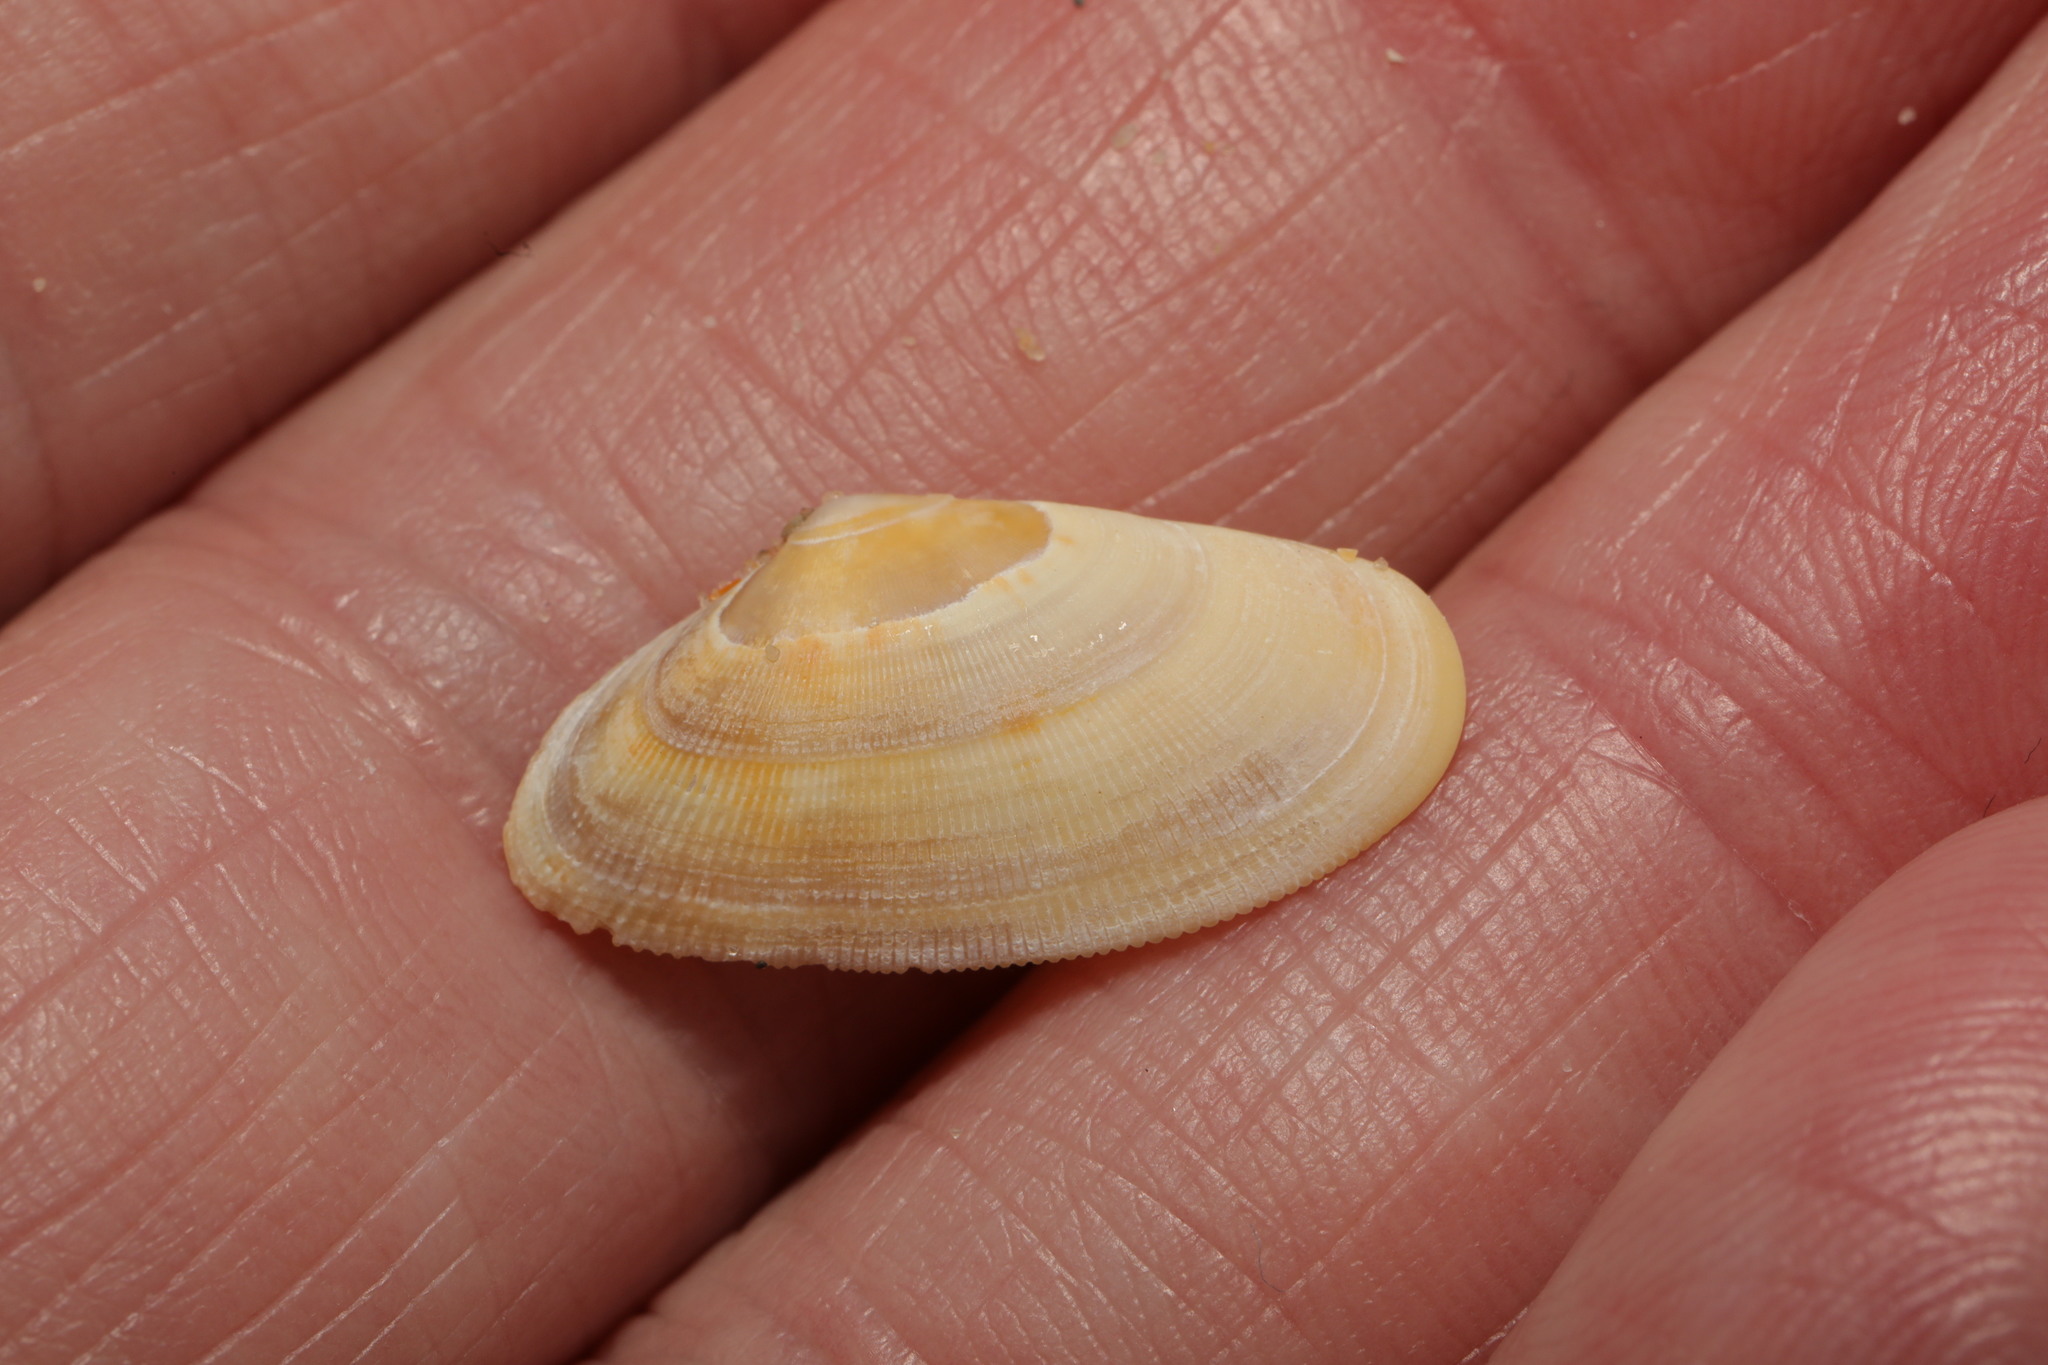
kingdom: Animalia
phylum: Mollusca
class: Bivalvia
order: Cardiida
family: Donacidae
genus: Donax
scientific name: Donax vittatus
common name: Banded wedge-shell
